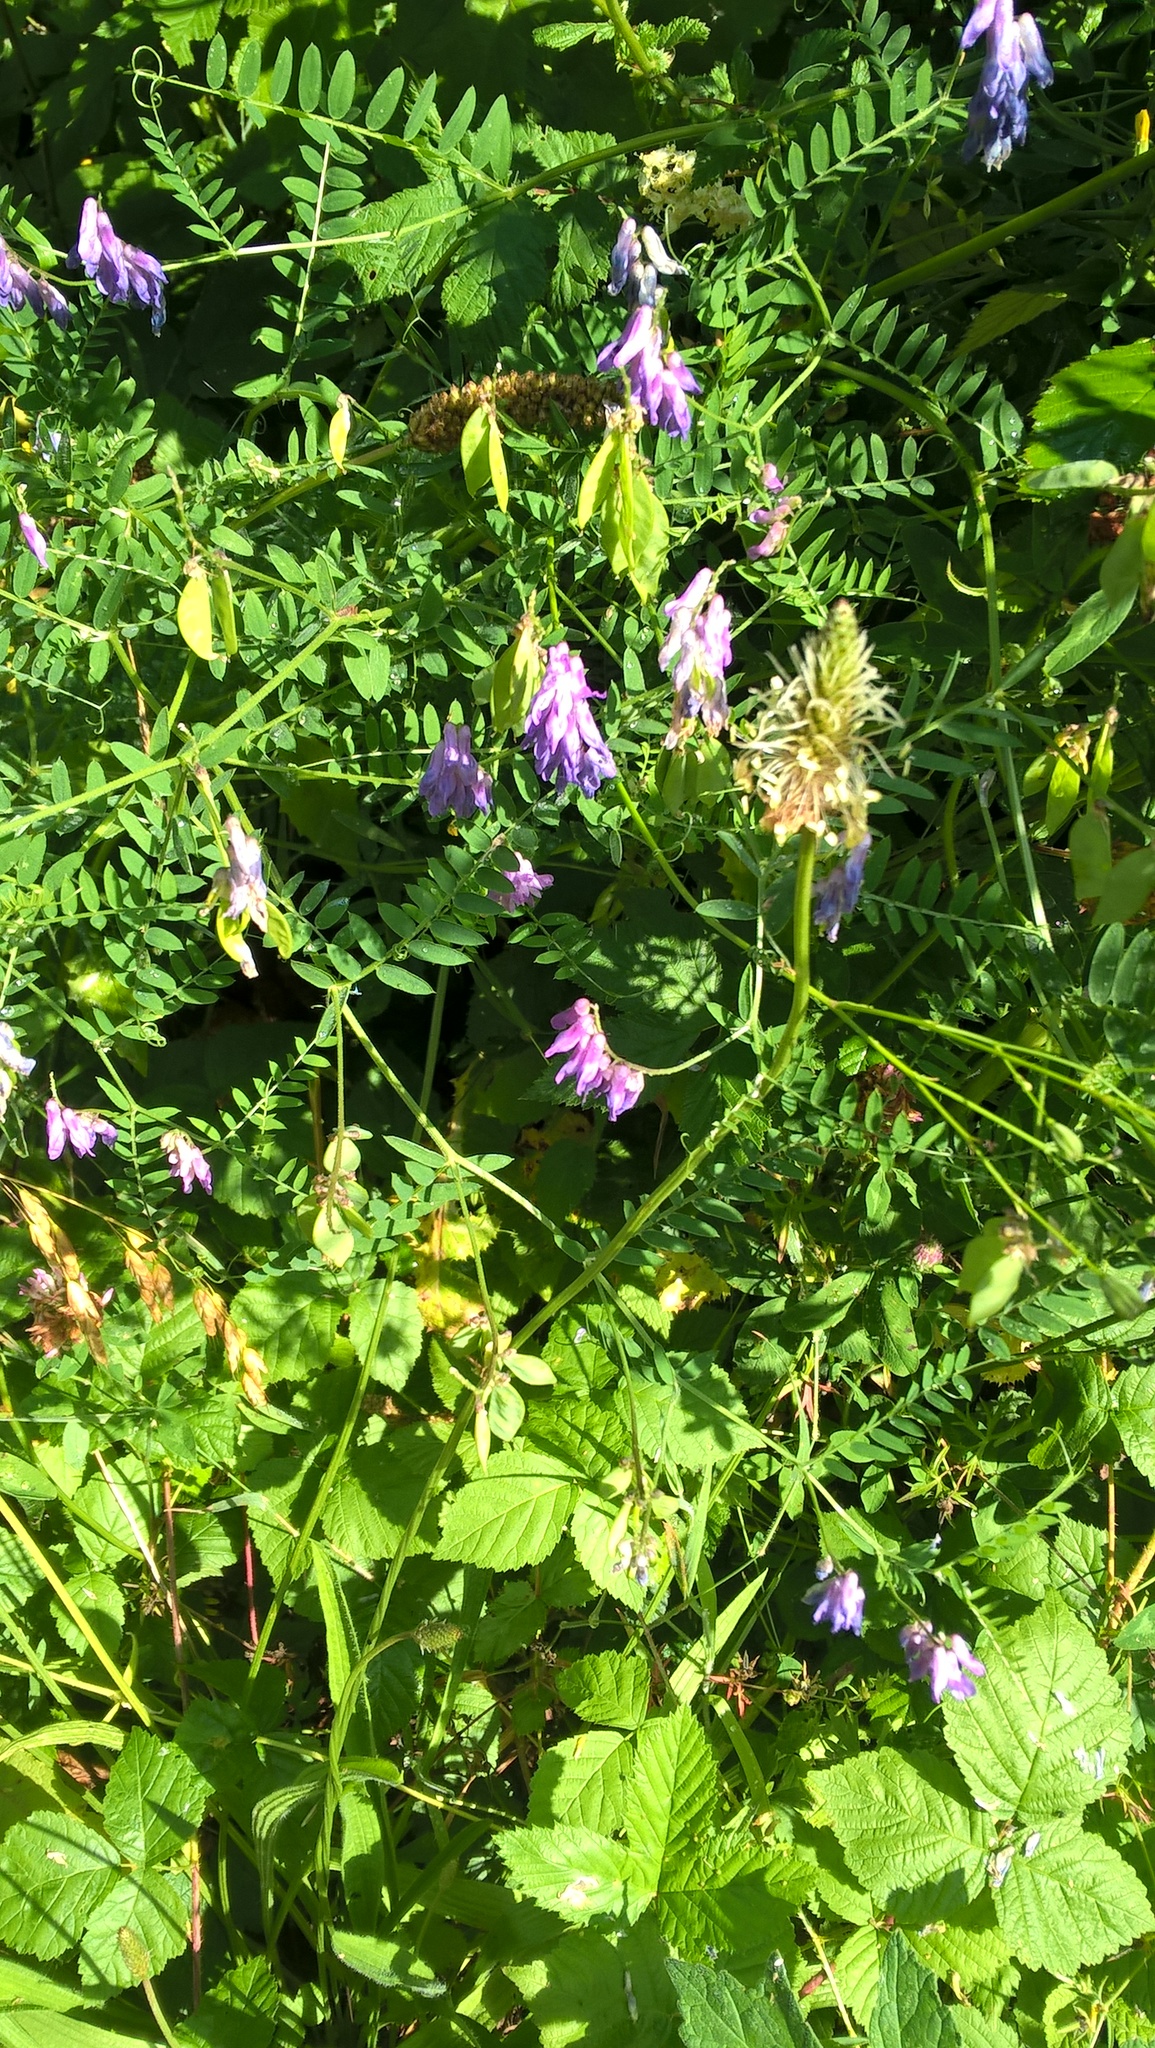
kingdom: Plantae
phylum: Tracheophyta
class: Magnoliopsida
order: Fabales
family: Fabaceae
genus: Vicia
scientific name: Vicia cracca
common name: Bird vetch
